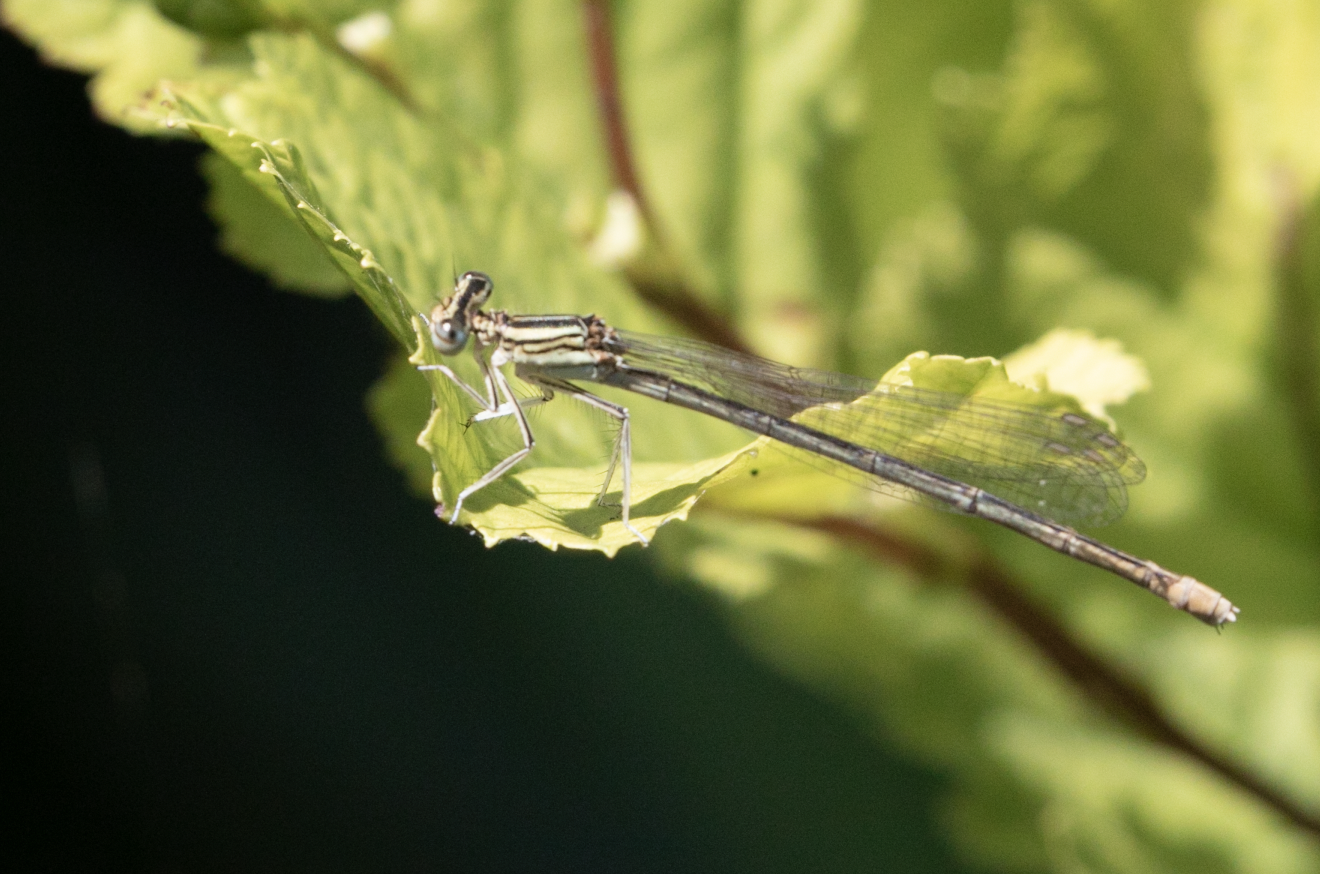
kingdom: Animalia
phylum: Arthropoda
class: Insecta
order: Odonata
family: Platycnemididae
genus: Platycnemis
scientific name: Platycnemis pennipes
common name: White-legged damselfly
